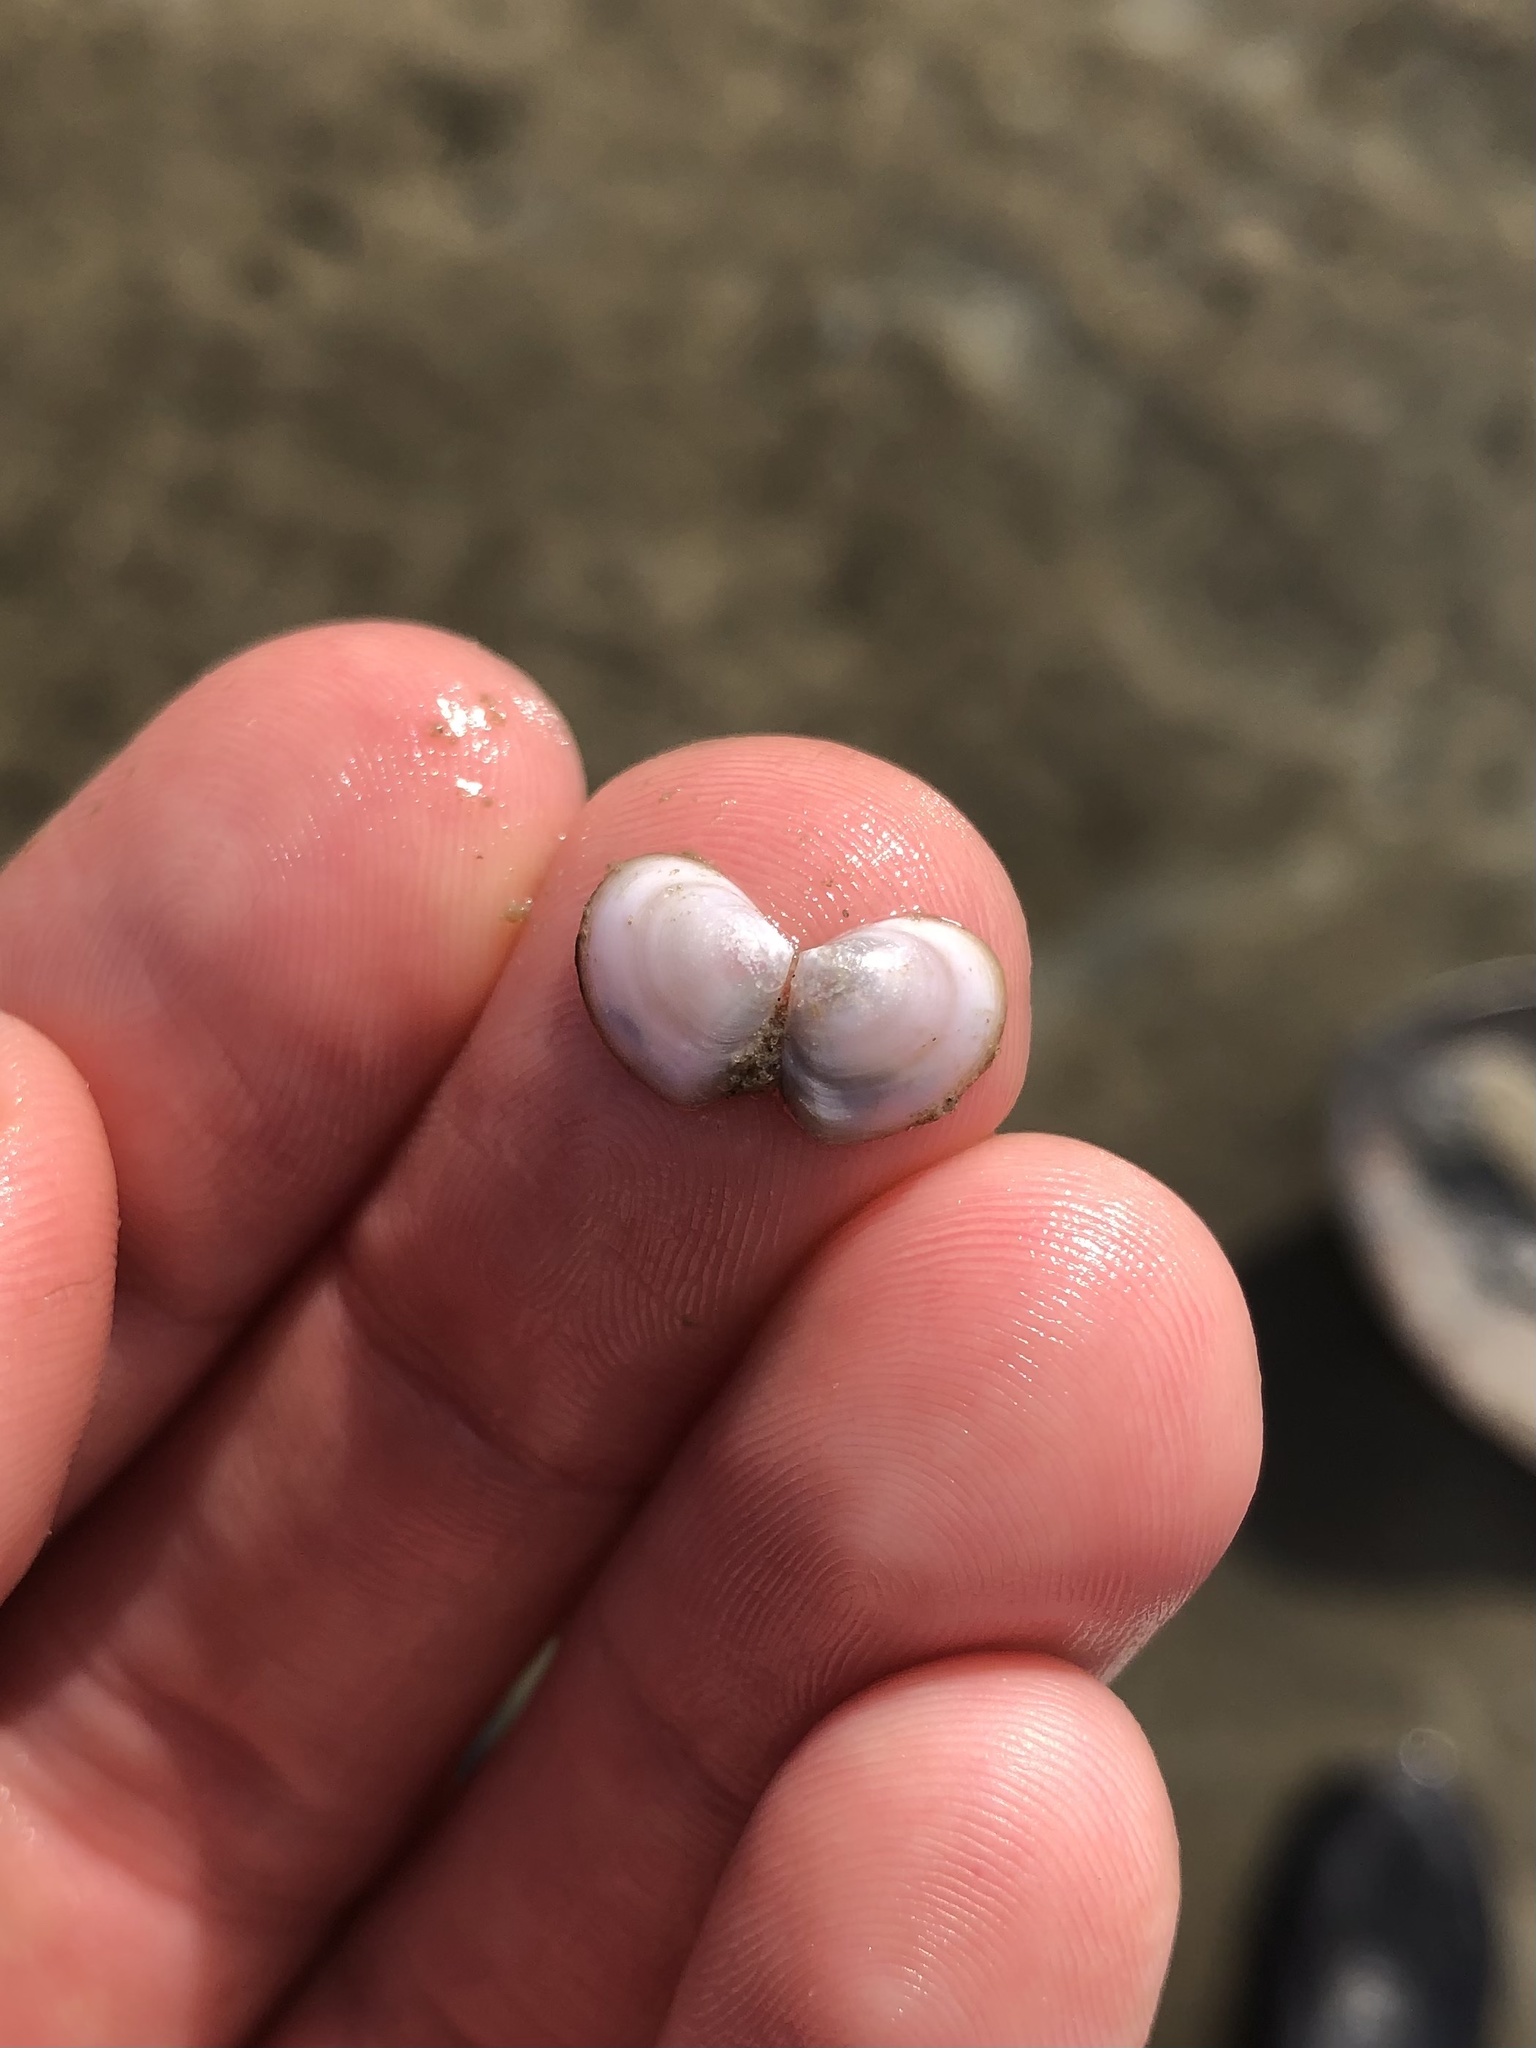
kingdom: Animalia
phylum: Mollusca
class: Bivalvia
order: Cardiida
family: Semelidae
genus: Abra
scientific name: Abra aequalis
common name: Common atlantic abra
